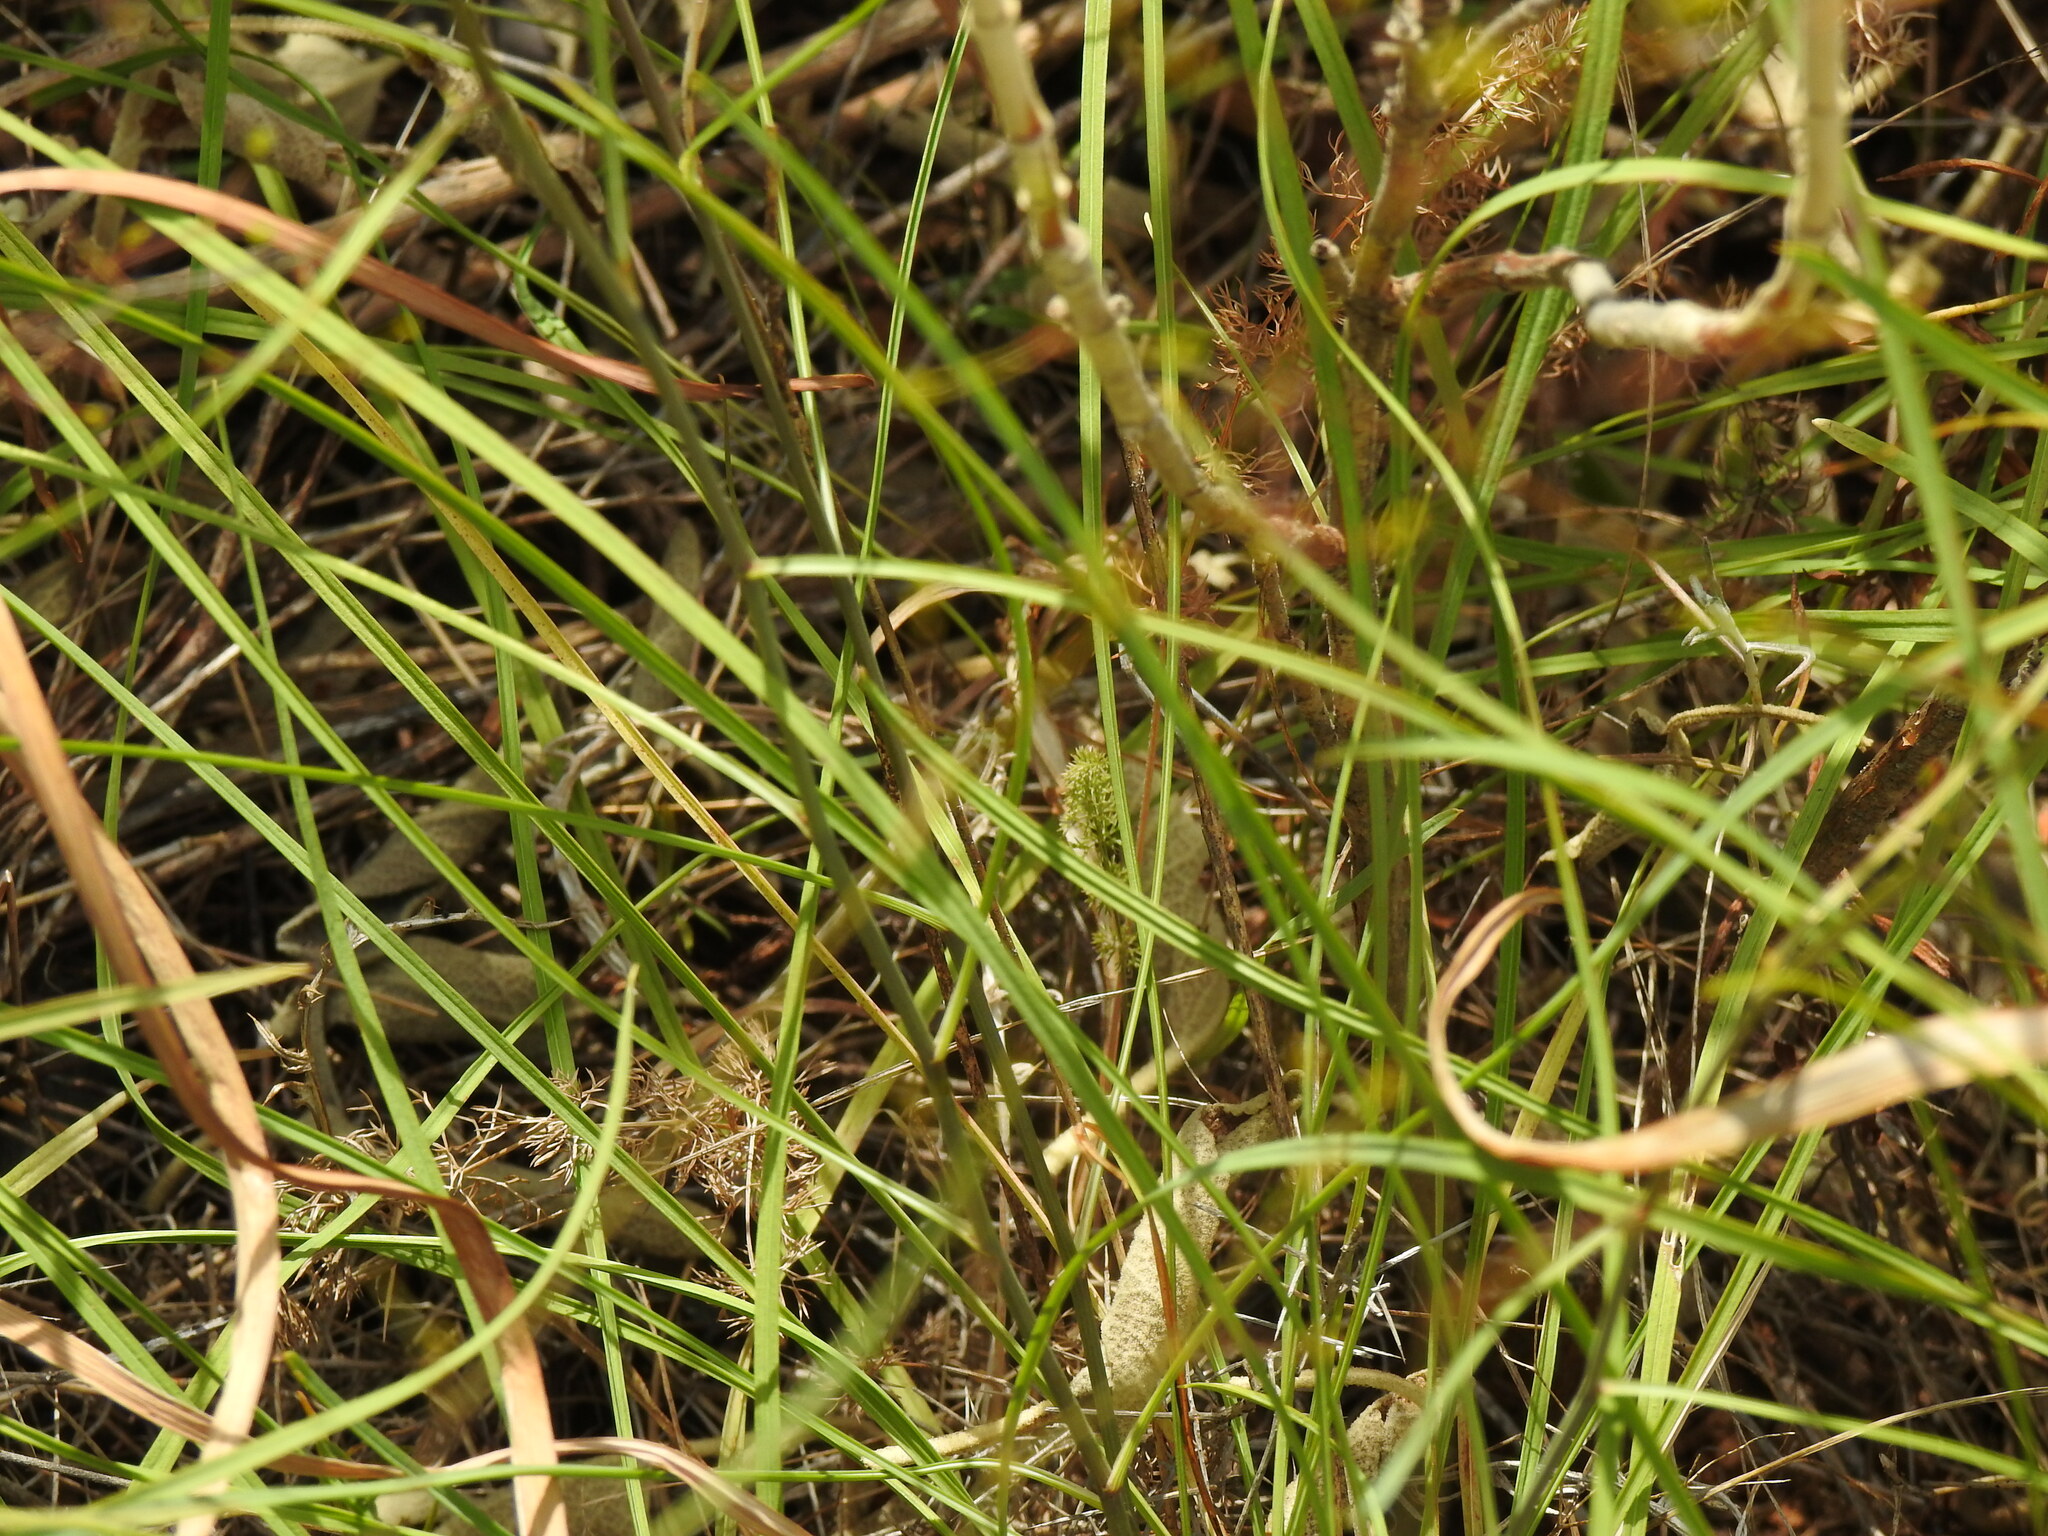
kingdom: Plantae
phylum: Tracheophyta
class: Magnoliopsida
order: Apiales
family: Apiaceae
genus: Bupleurum
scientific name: Bupleurum rigidum
